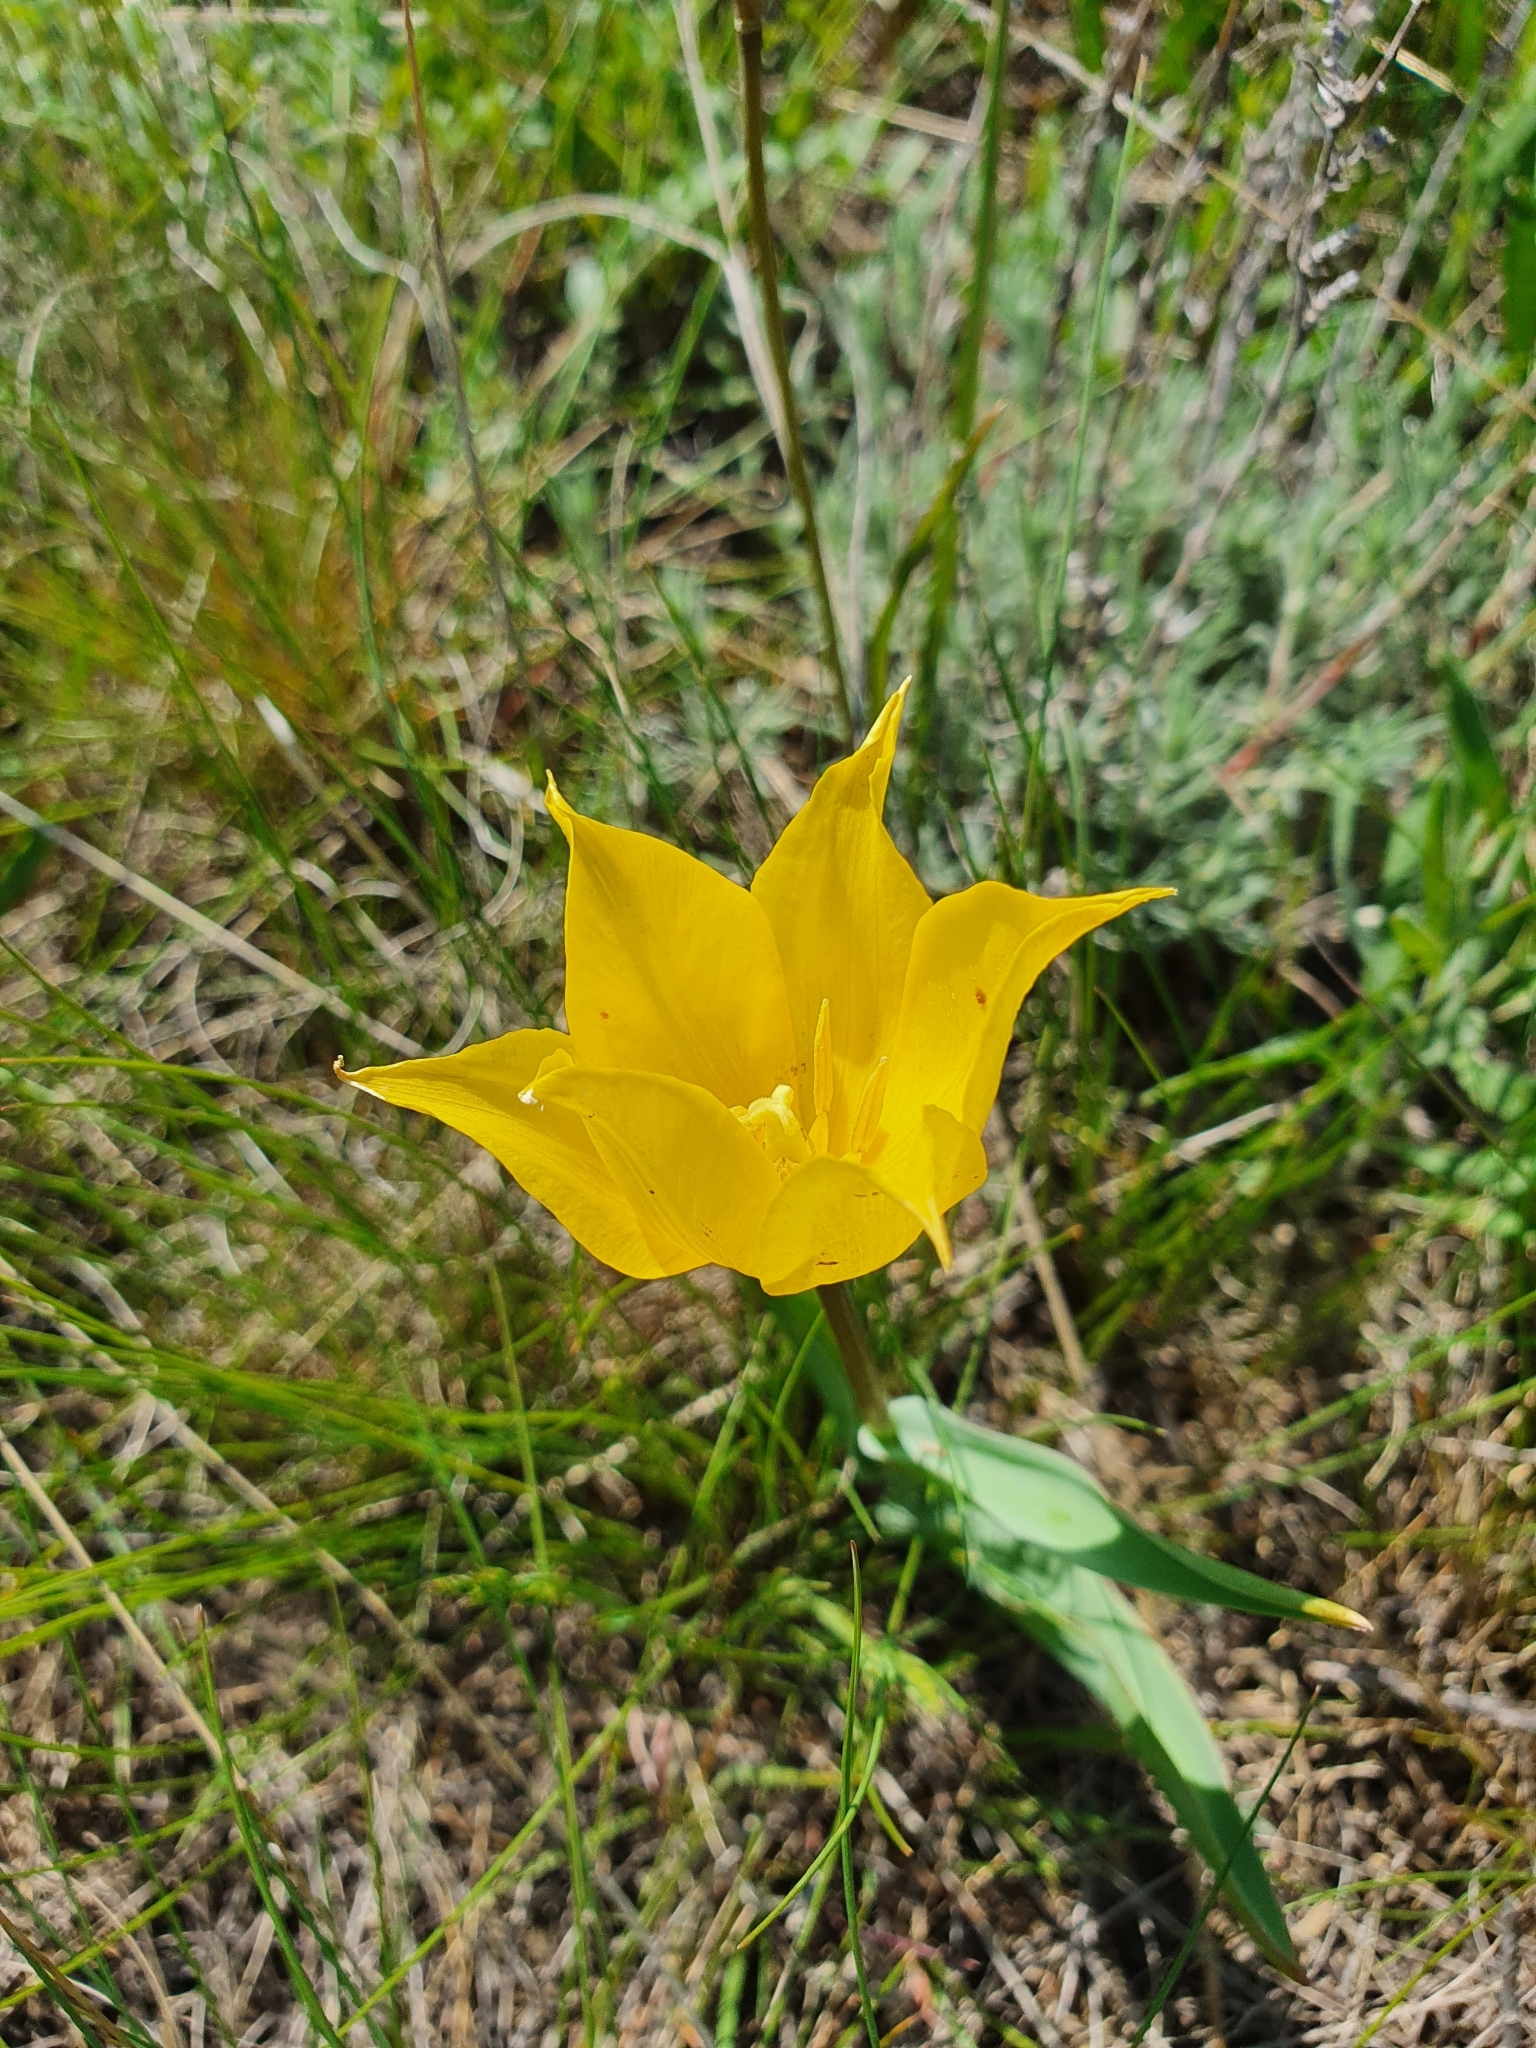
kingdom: Plantae
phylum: Tracheophyta
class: Liliopsida
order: Liliales
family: Liliaceae
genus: Tulipa
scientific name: Tulipa suaveolens
